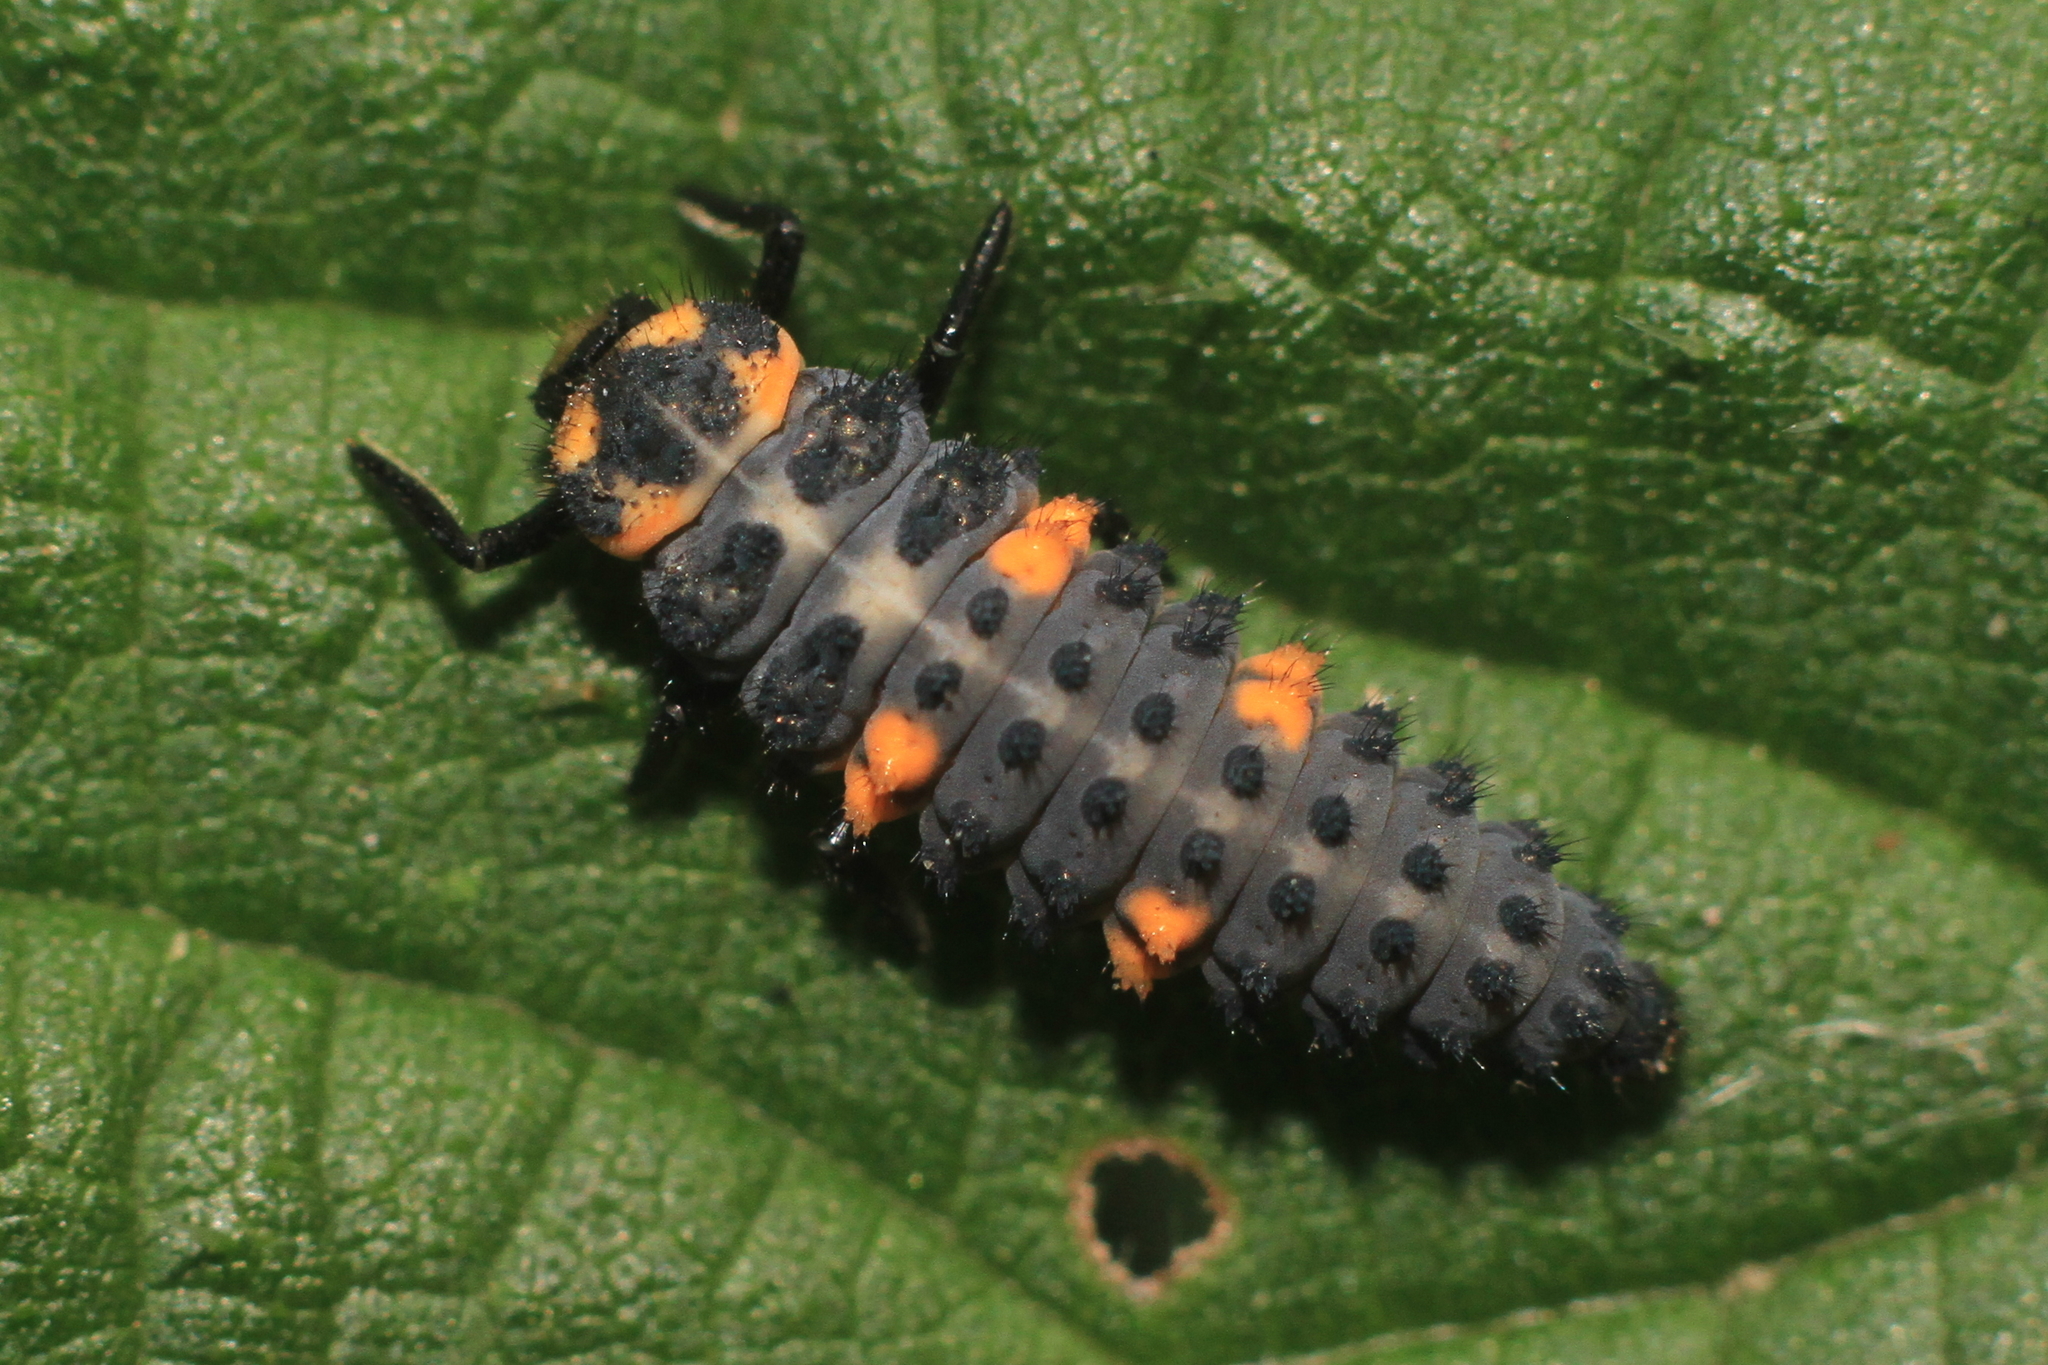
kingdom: Animalia
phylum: Arthropoda
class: Insecta
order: Coleoptera
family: Coccinellidae
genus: Coccinella
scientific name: Coccinella septempunctata
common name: Sevenspotted lady beetle
